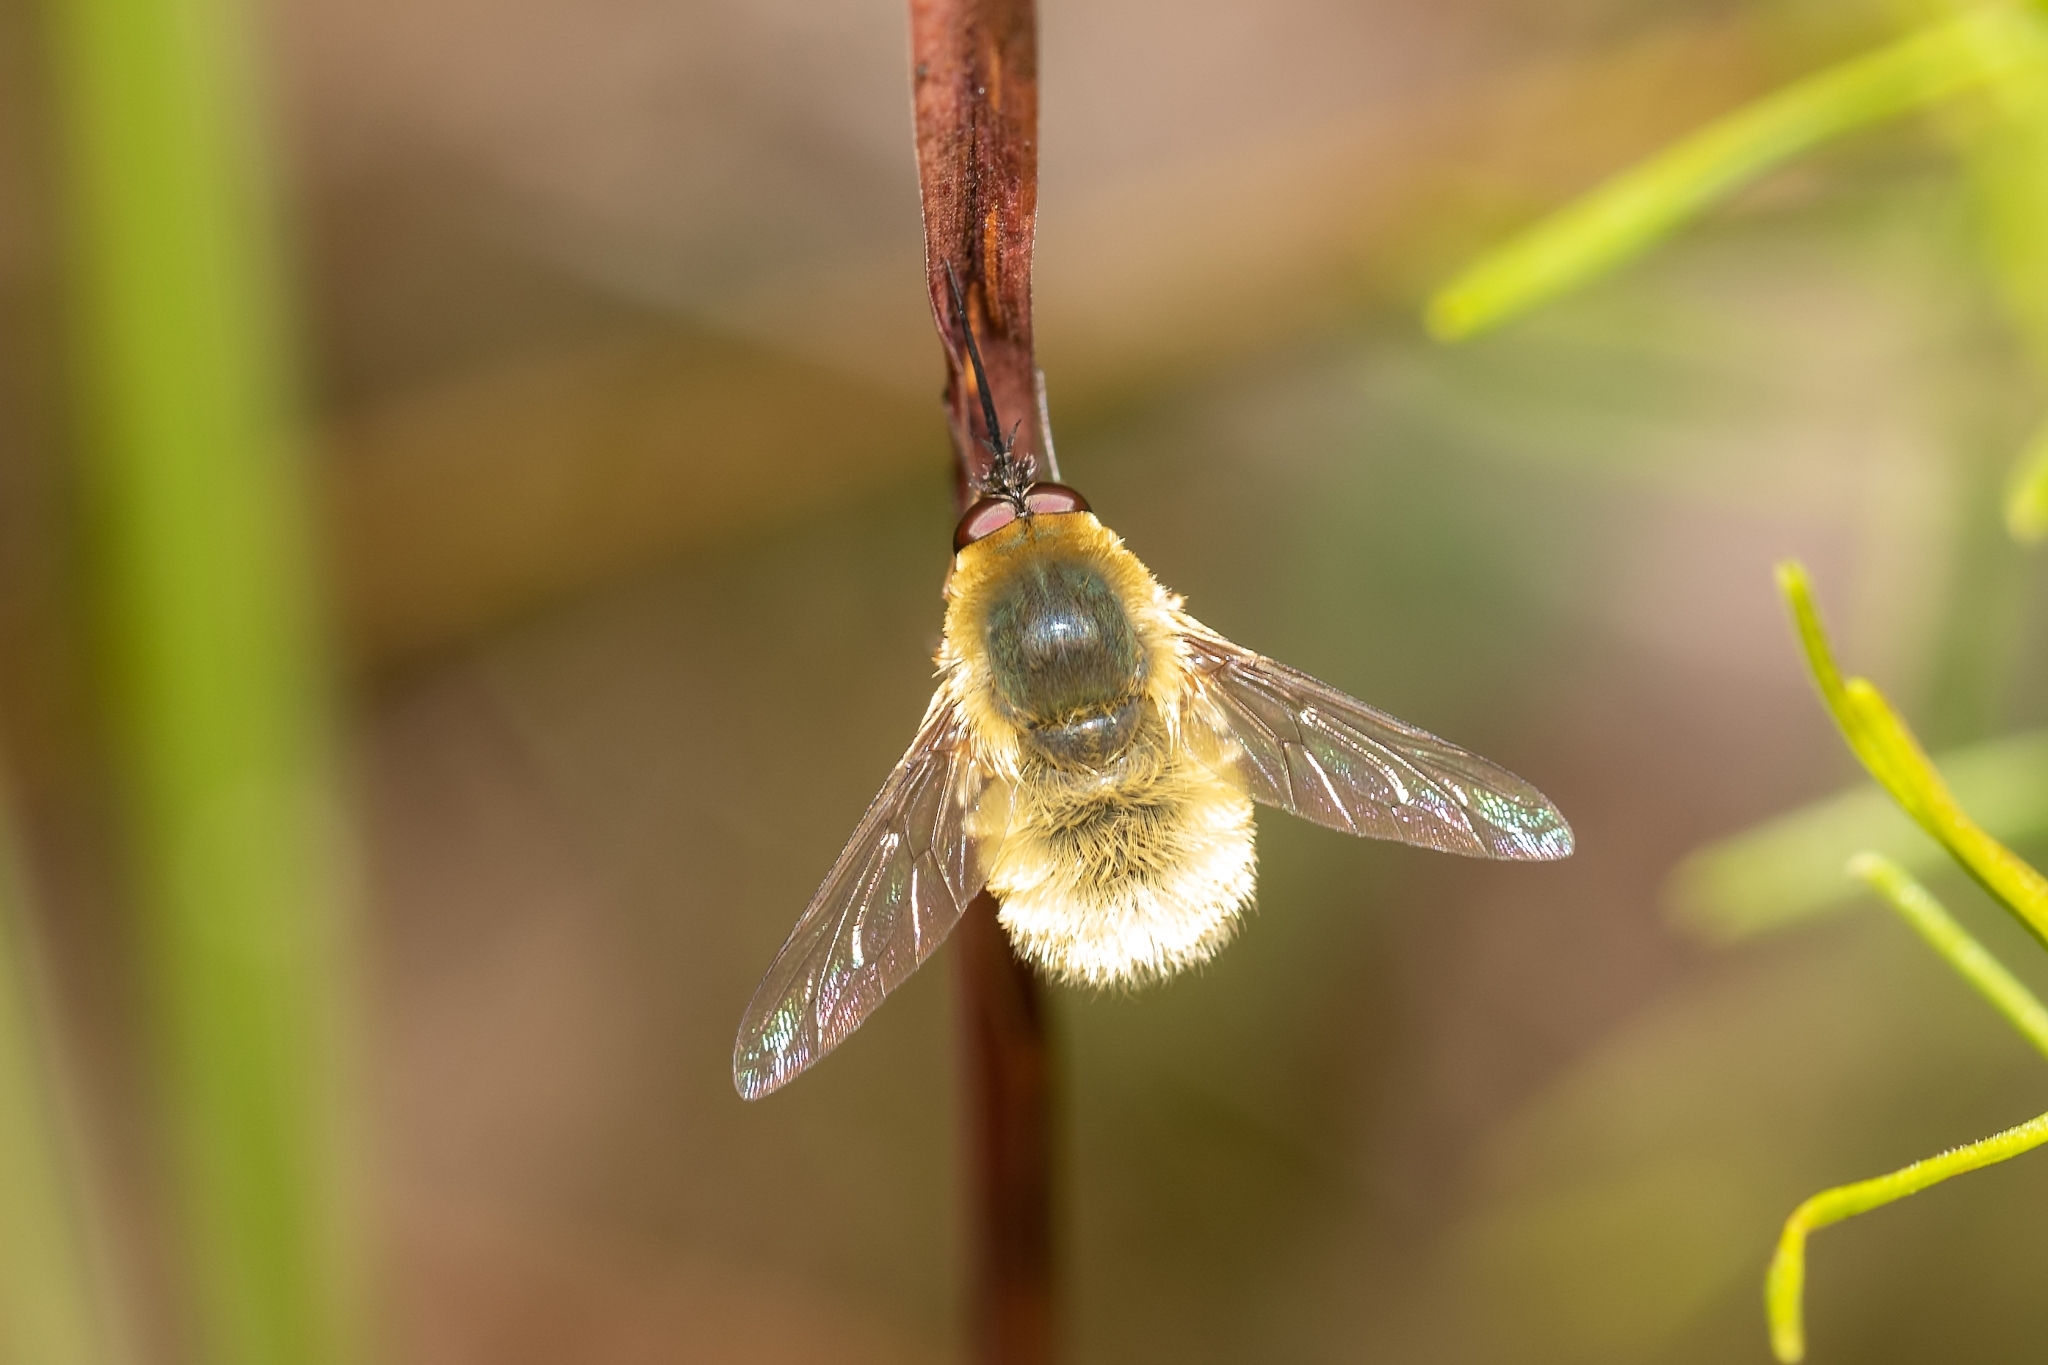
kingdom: Animalia
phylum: Arthropoda
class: Insecta
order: Diptera
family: Bombyliidae
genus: Systoechus
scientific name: Systoechus solitus
